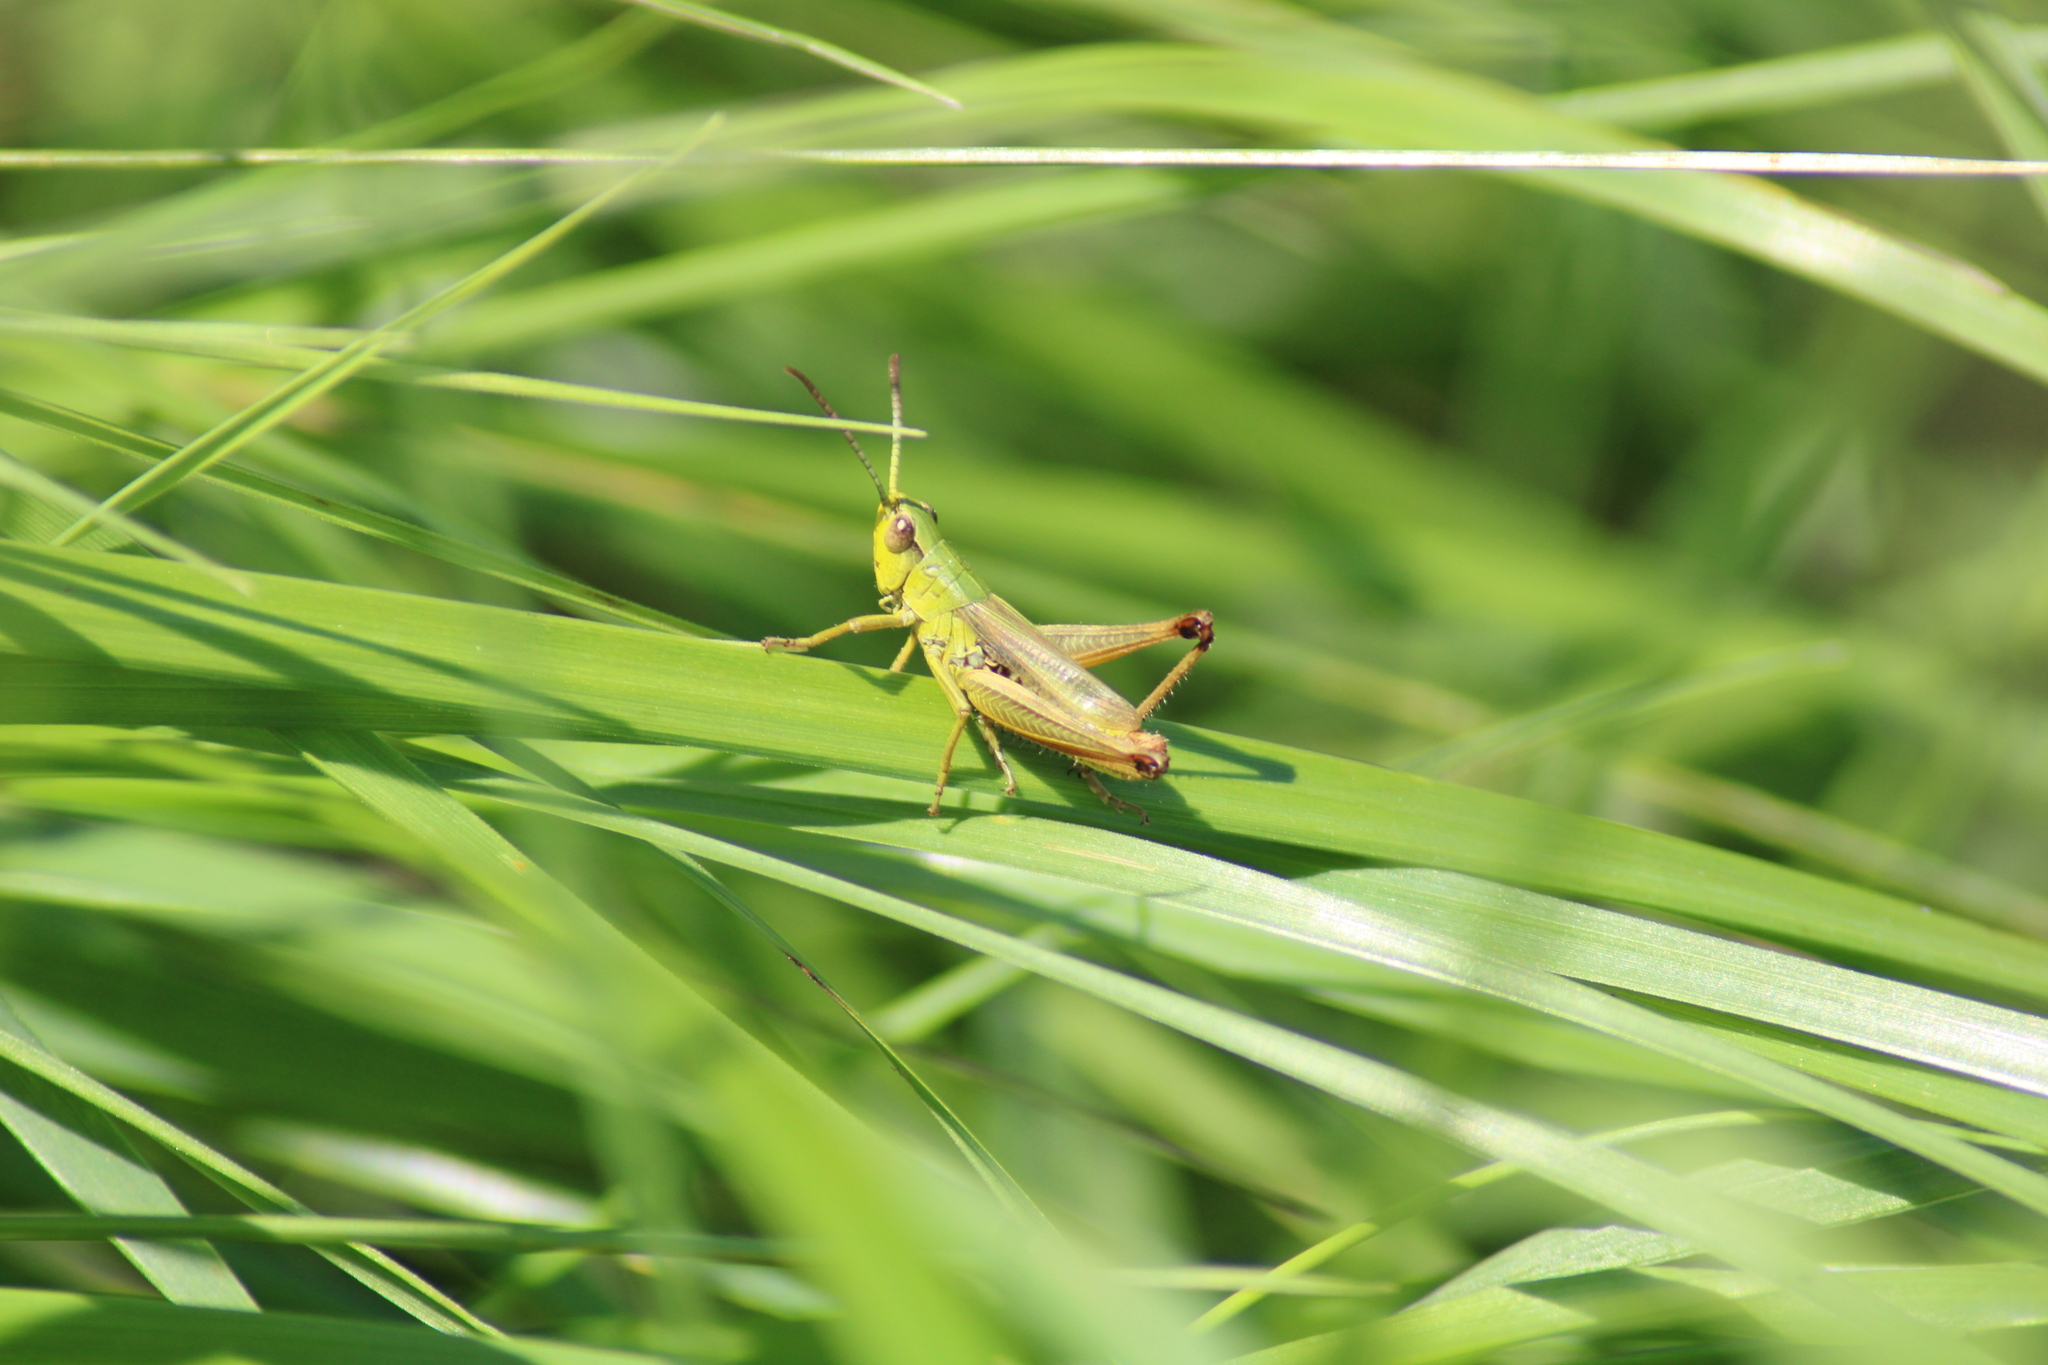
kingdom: Animalia
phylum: Arthropoda
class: Insecta
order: Orthoptera
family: Acrididae
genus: Pseudochorthippus
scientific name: Pseudochorthippus parallelus
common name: Meadow grasshopper
